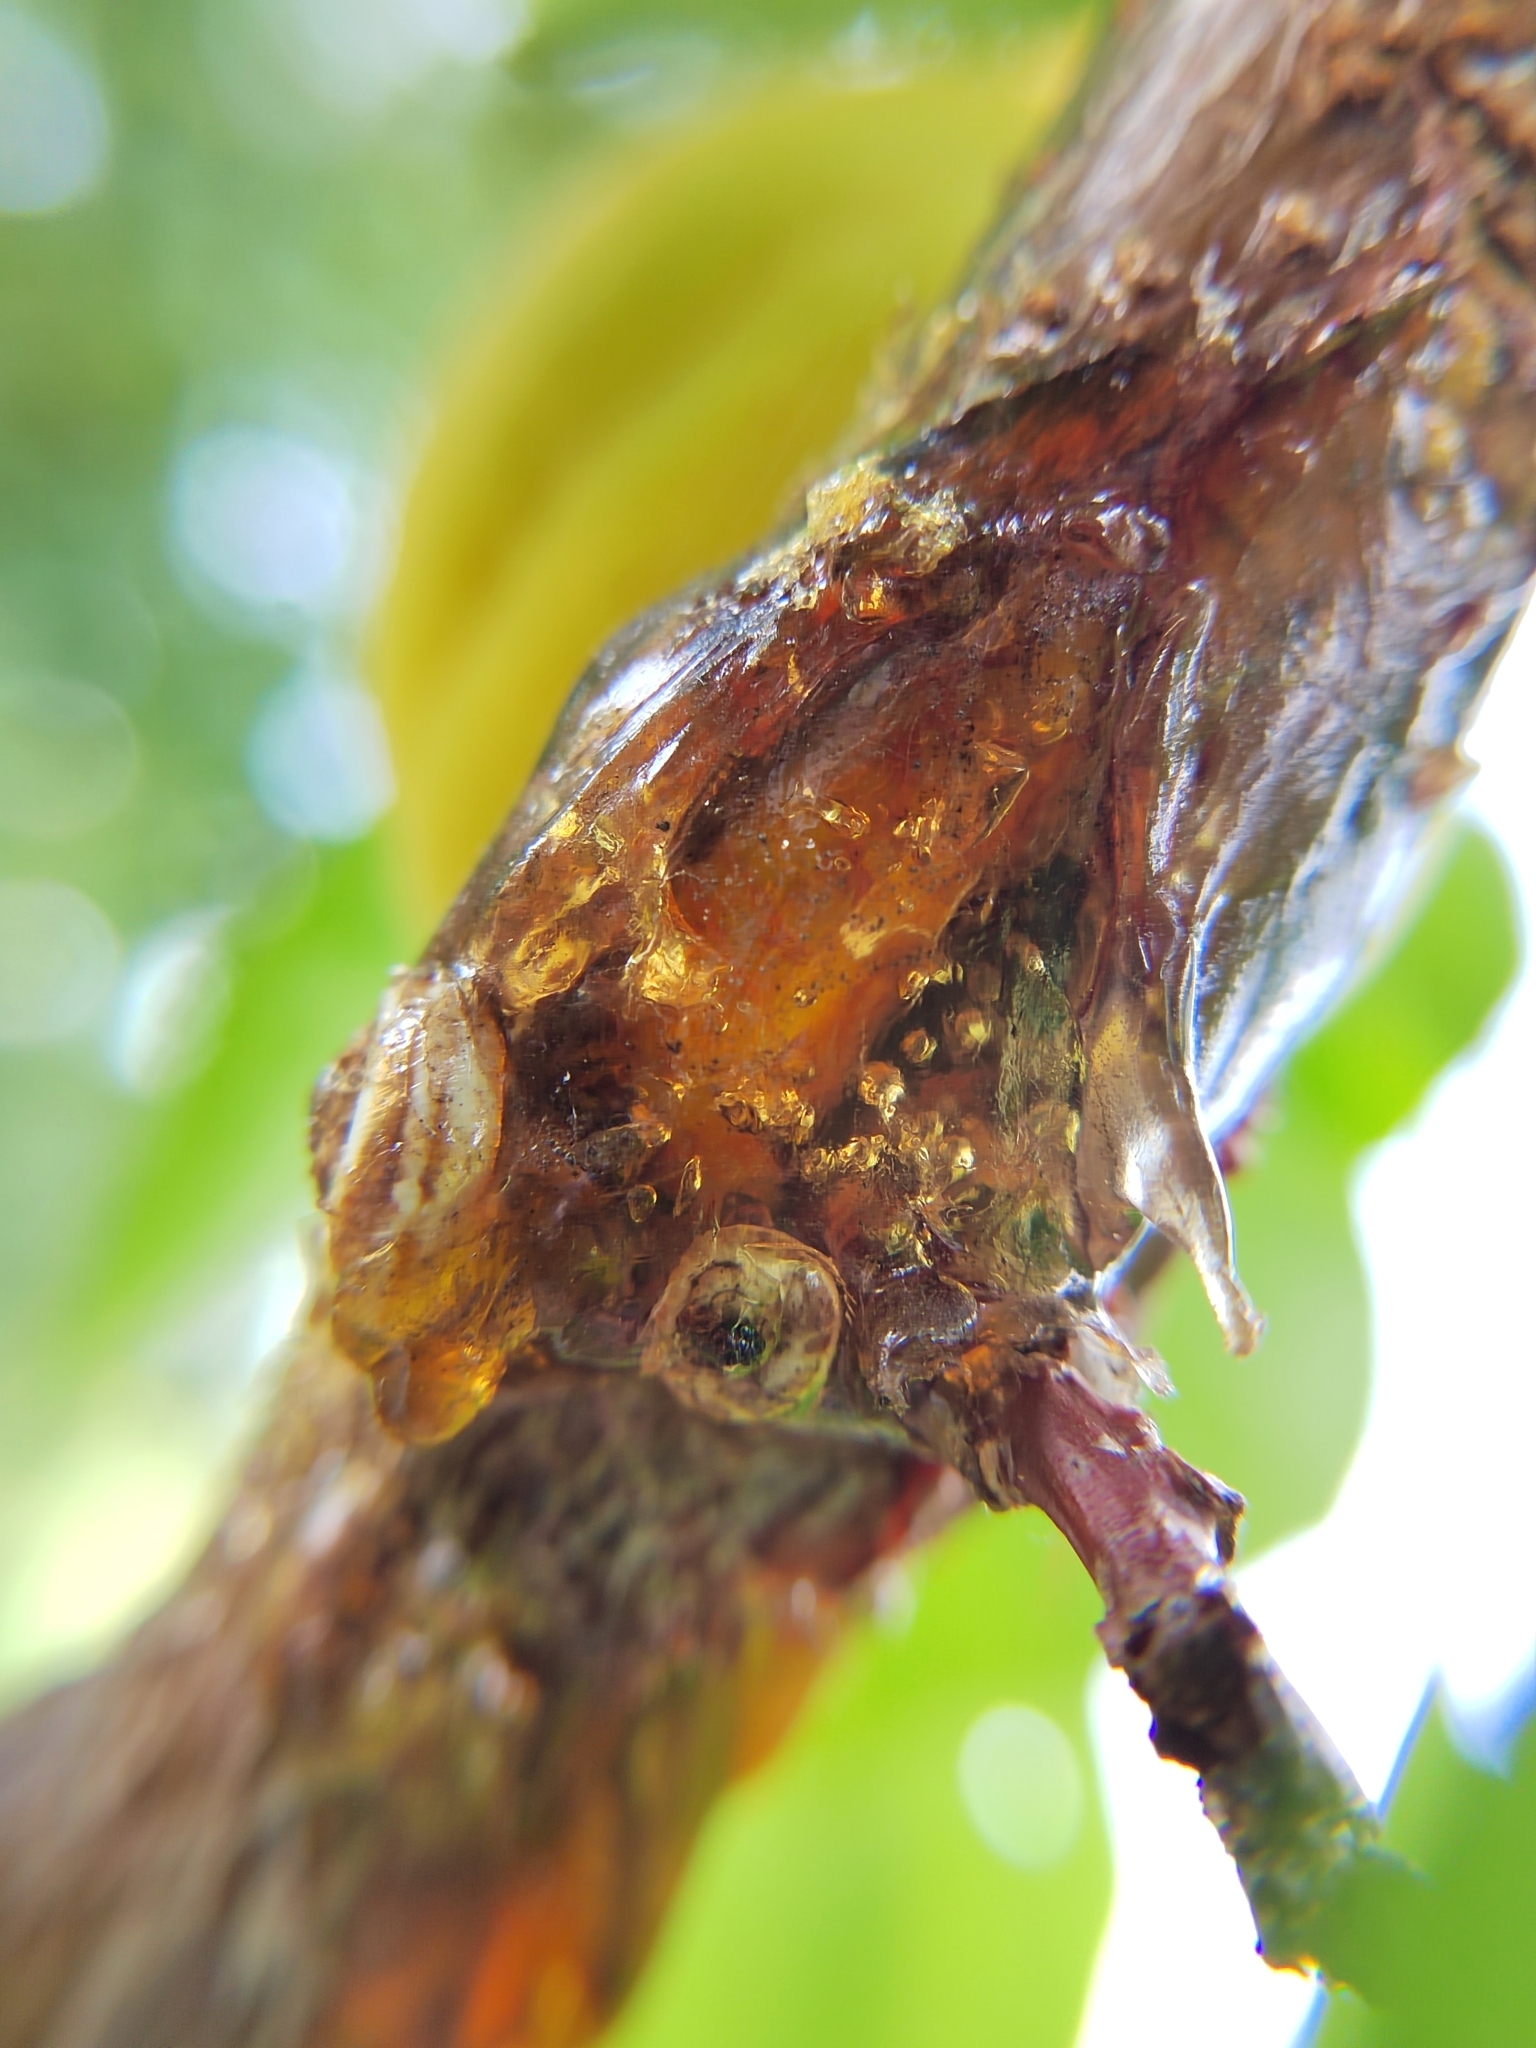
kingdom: Animalia
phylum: Mollusca
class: Gastropoda
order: Stylommatophora
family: Geomitridae
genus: Xeropicta
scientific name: Xeropicta derbentina
